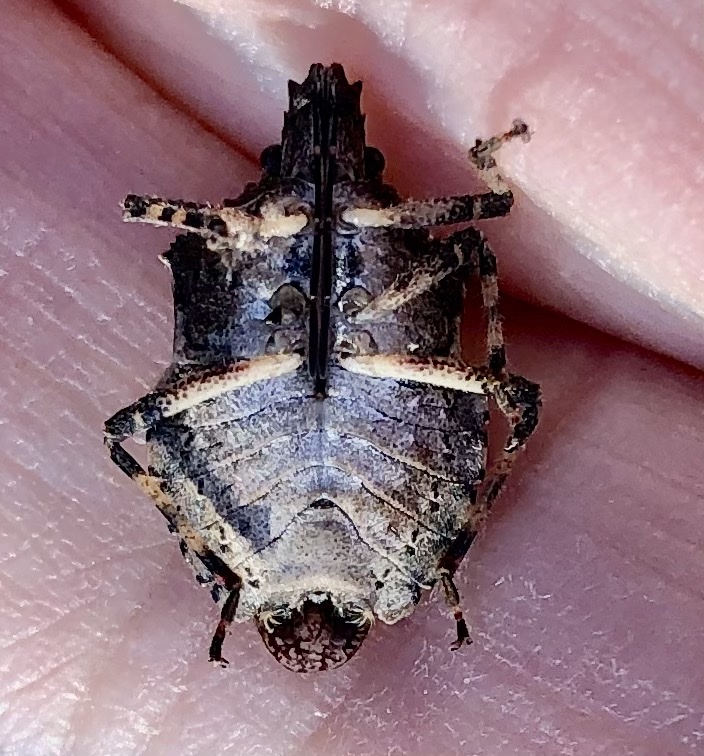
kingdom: Animalia
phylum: Arthropoda
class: Insecta
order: Hemiptera
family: Pentatomidae
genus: Brochymena
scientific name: Brochymena arborea
